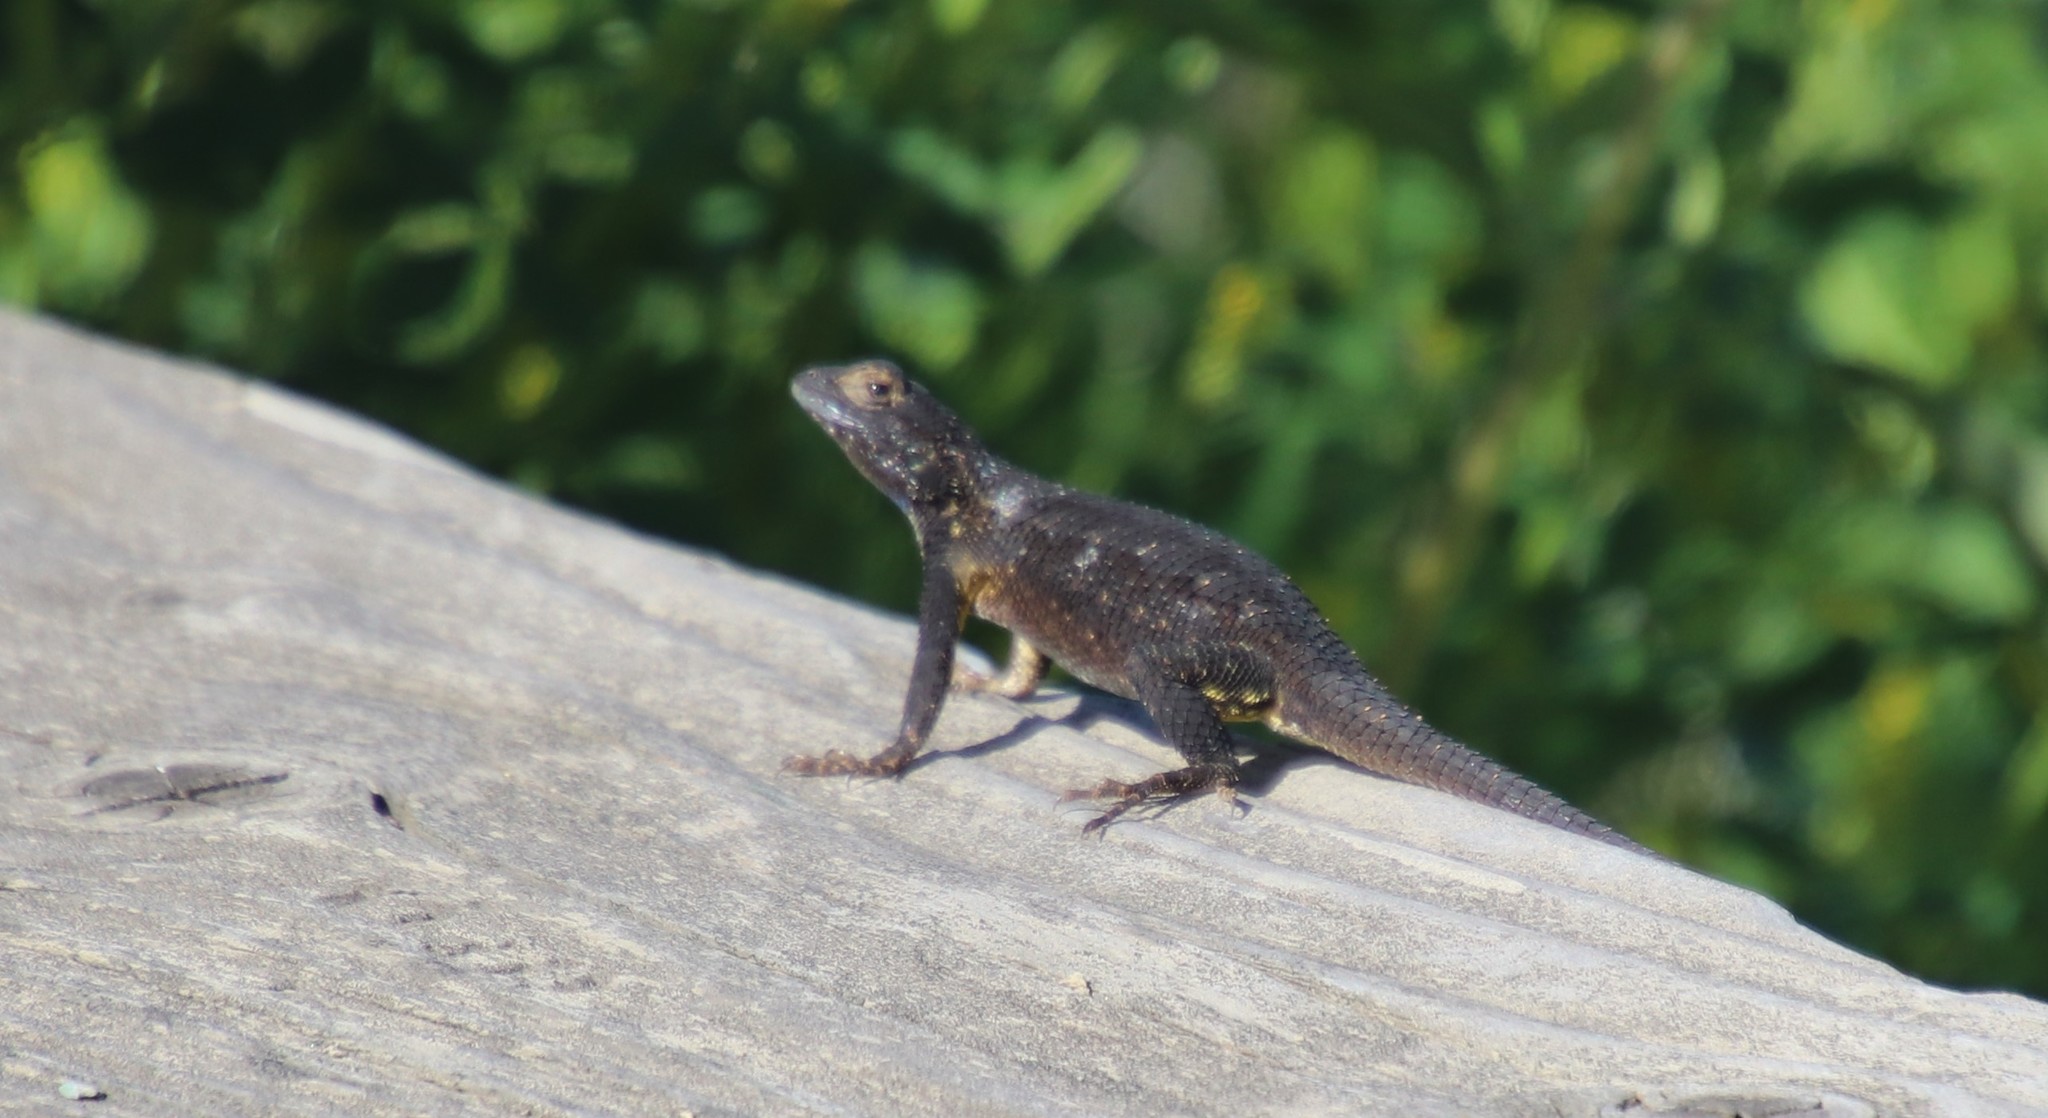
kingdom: Animalia
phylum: Chordata
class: Squamata
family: Phrynosomatidae
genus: Sceloporus
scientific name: Sceloporus occidentalis
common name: Western fence lizard
